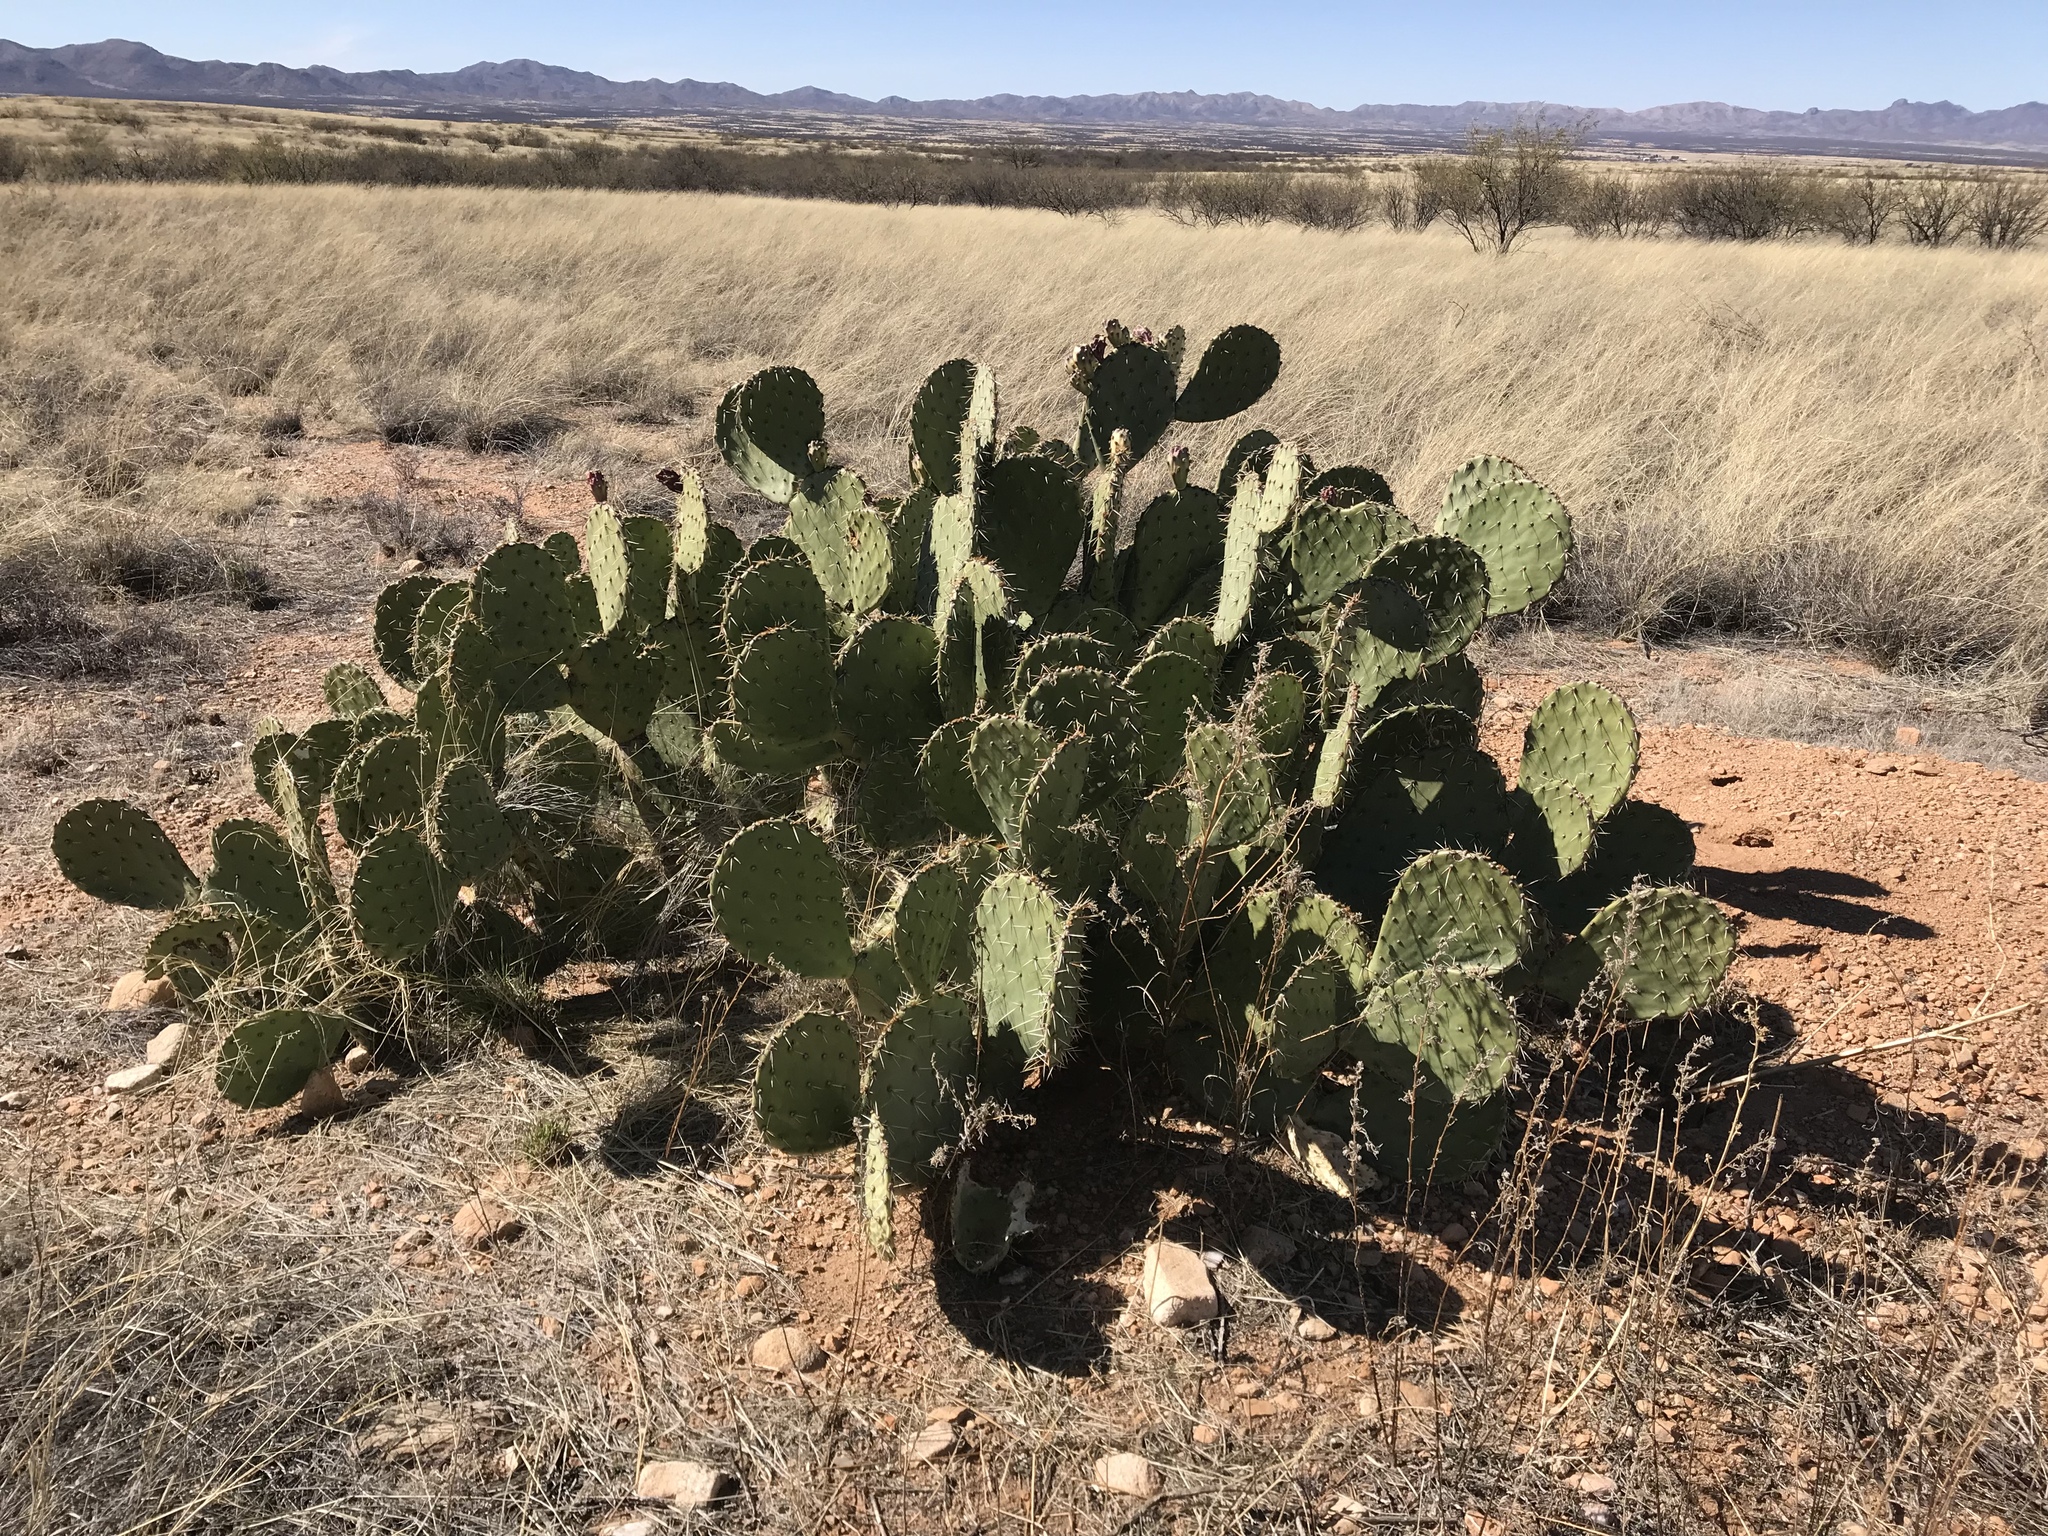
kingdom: Plantae
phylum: Tracheophyta
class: Magnoliopsida
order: Caryophyllales
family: Cactaceae
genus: Opuntia
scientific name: Opuntia engelmannii
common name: Cactus-apple
